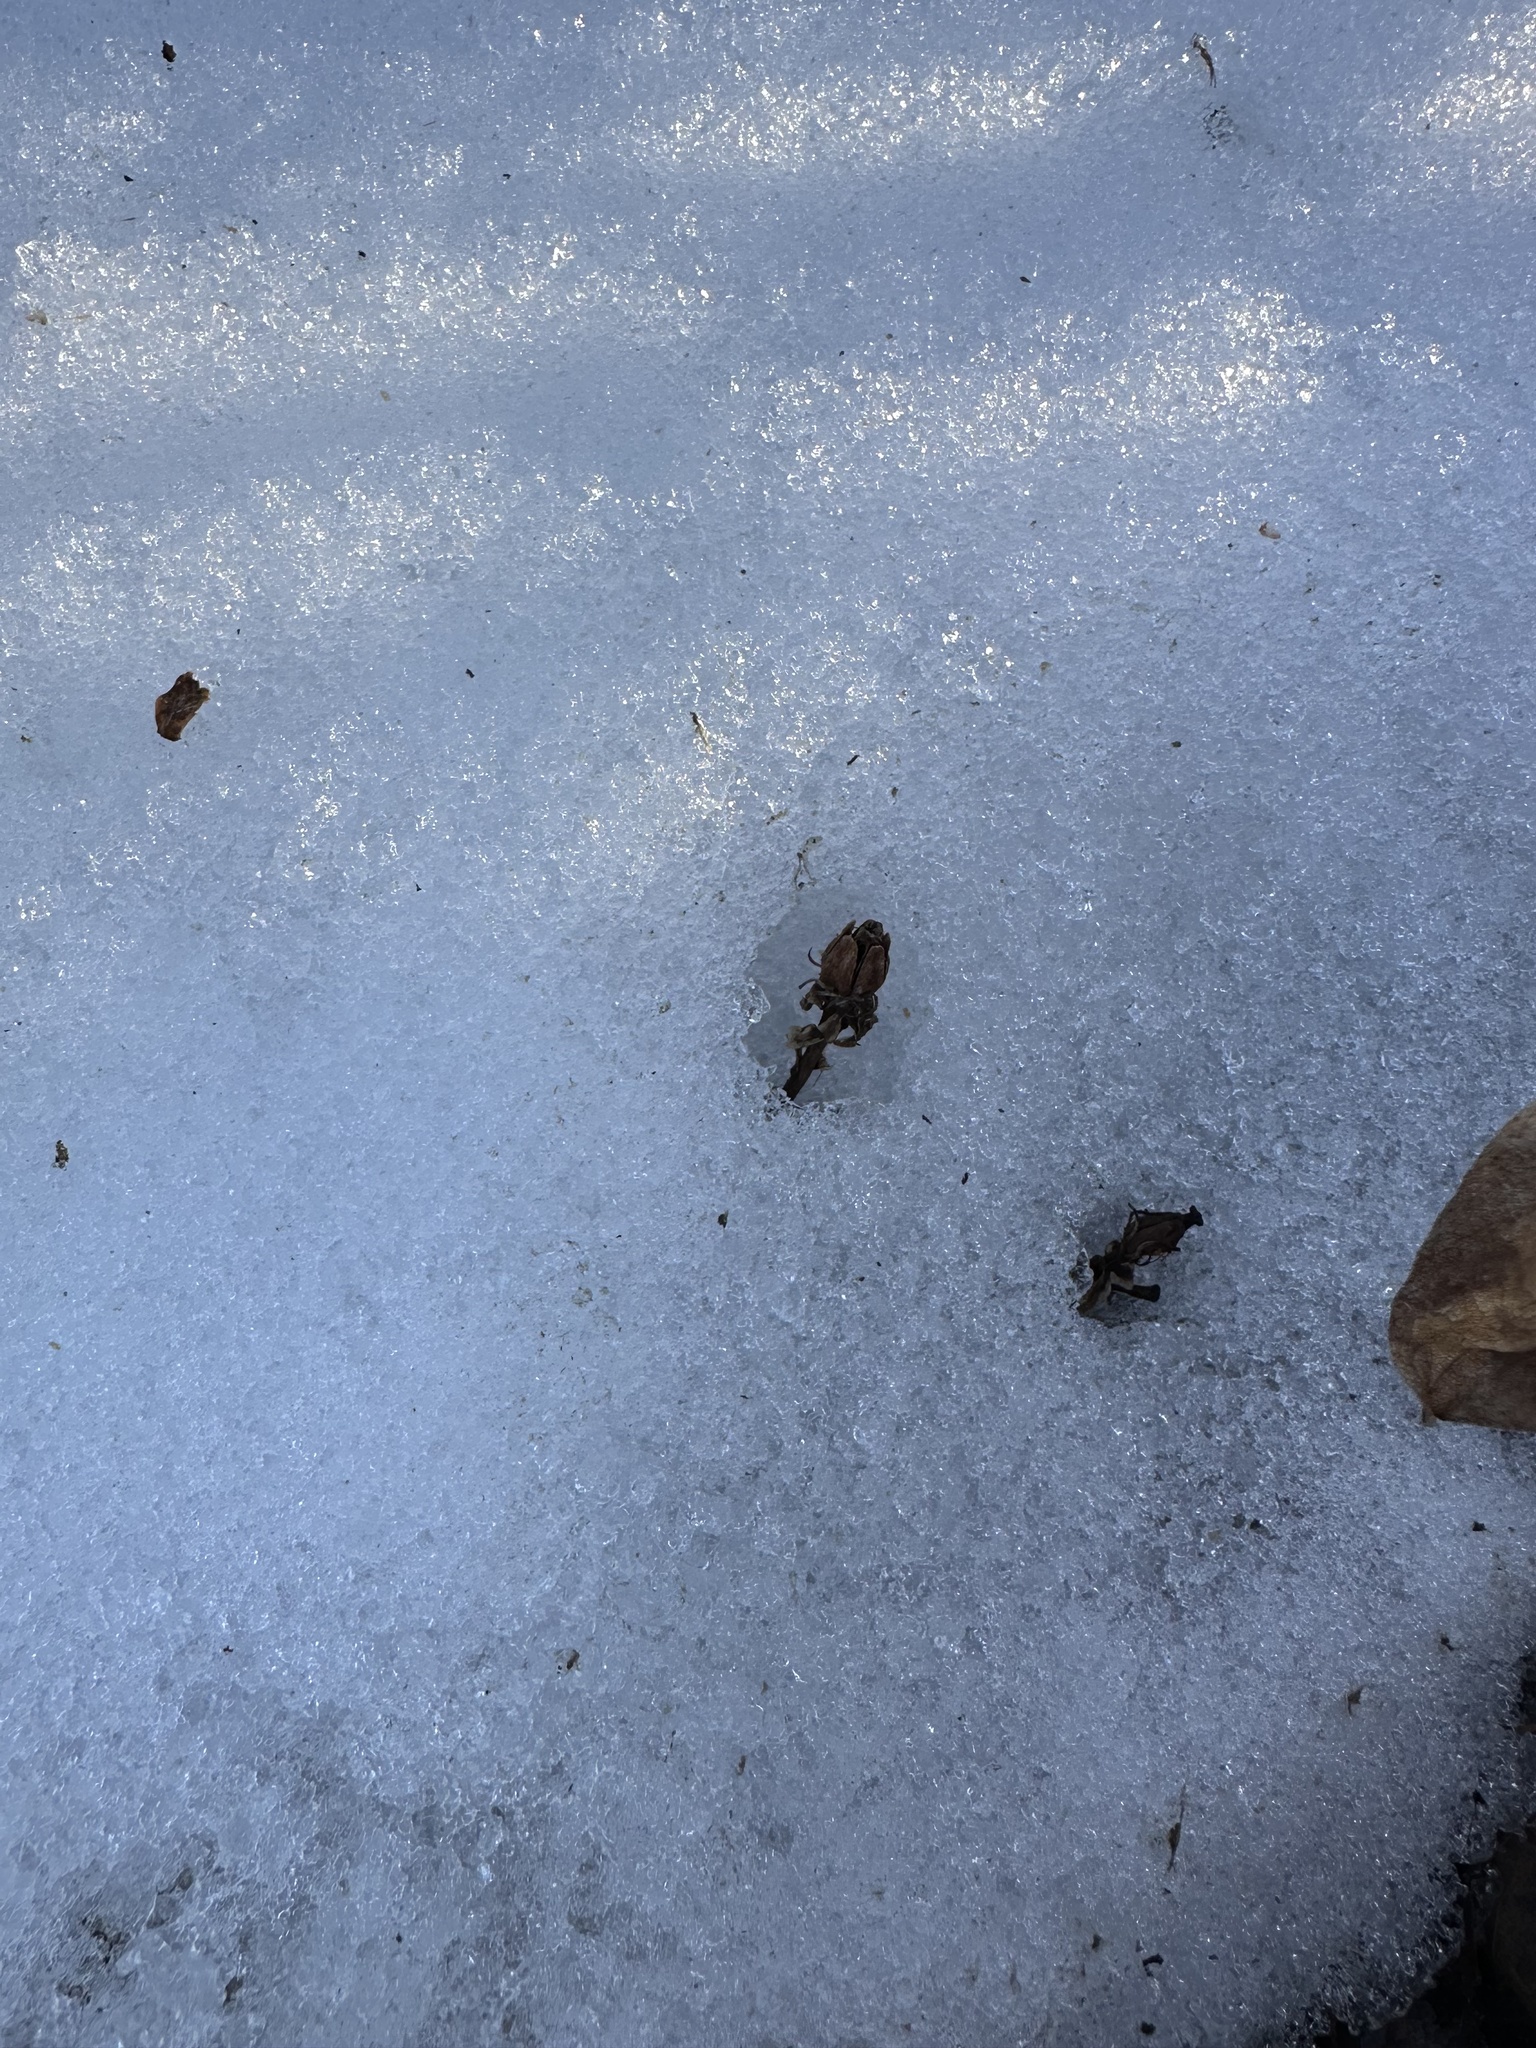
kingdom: Plantae
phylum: Tracheophyta
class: Magnoliopsida
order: Ericales
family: Ericaceae
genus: Monotropa
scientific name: Monotropa uniflora
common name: Convulsion root
